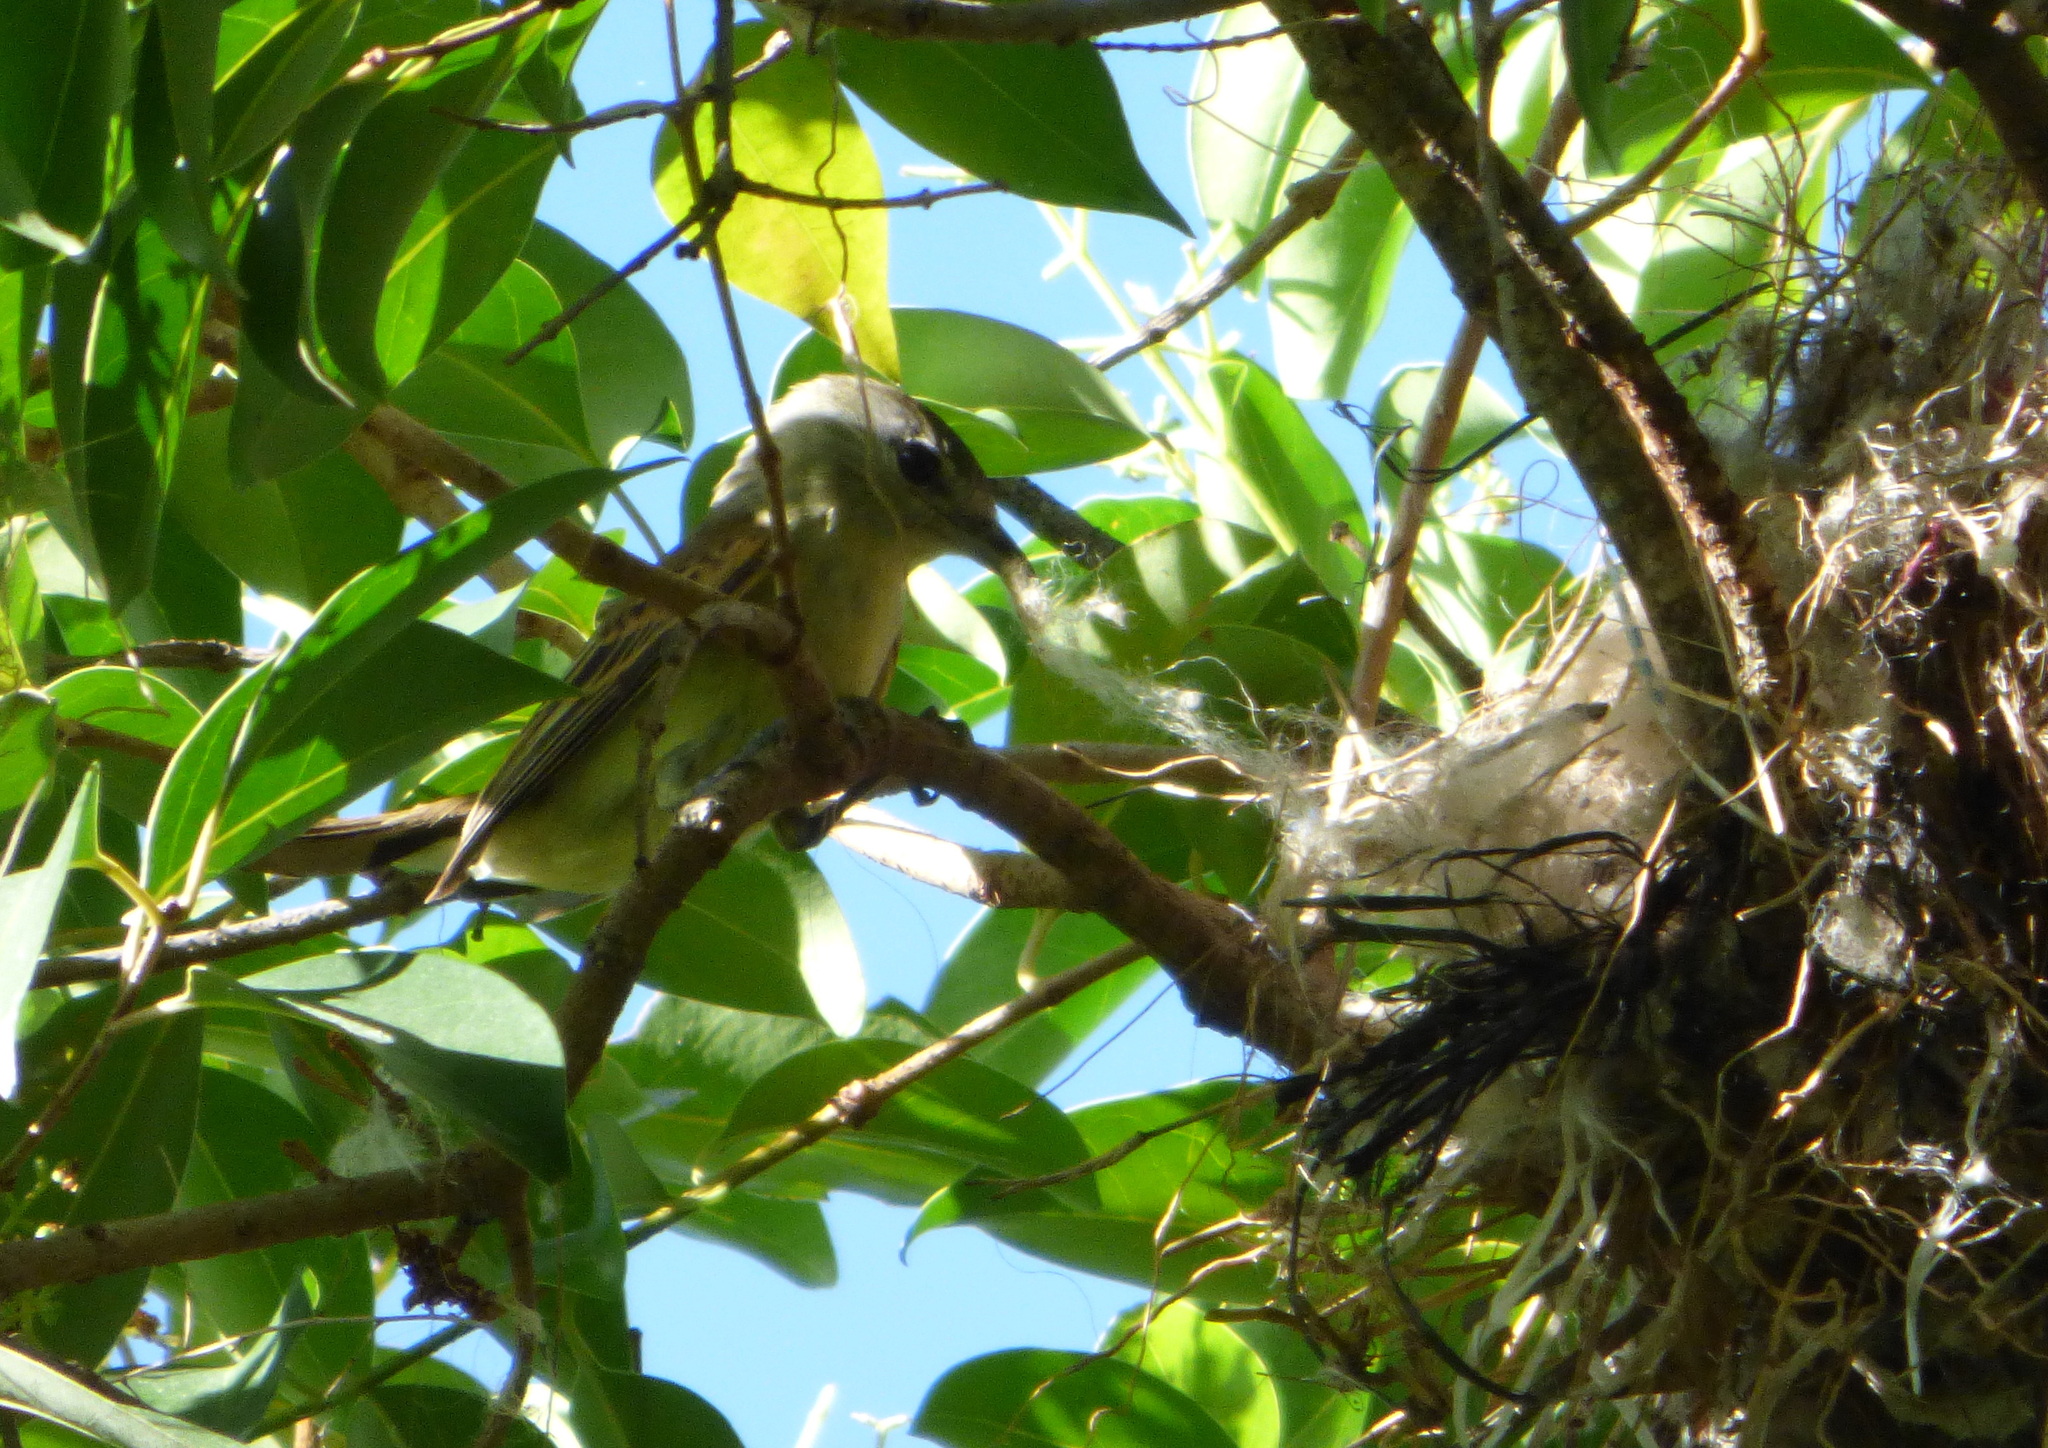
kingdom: Animalia
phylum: Chordata
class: Aves
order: Passeriformes
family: Cotingidae
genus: Pachyramphus
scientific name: Pachyramphus polychopterus
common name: White-winged becard
